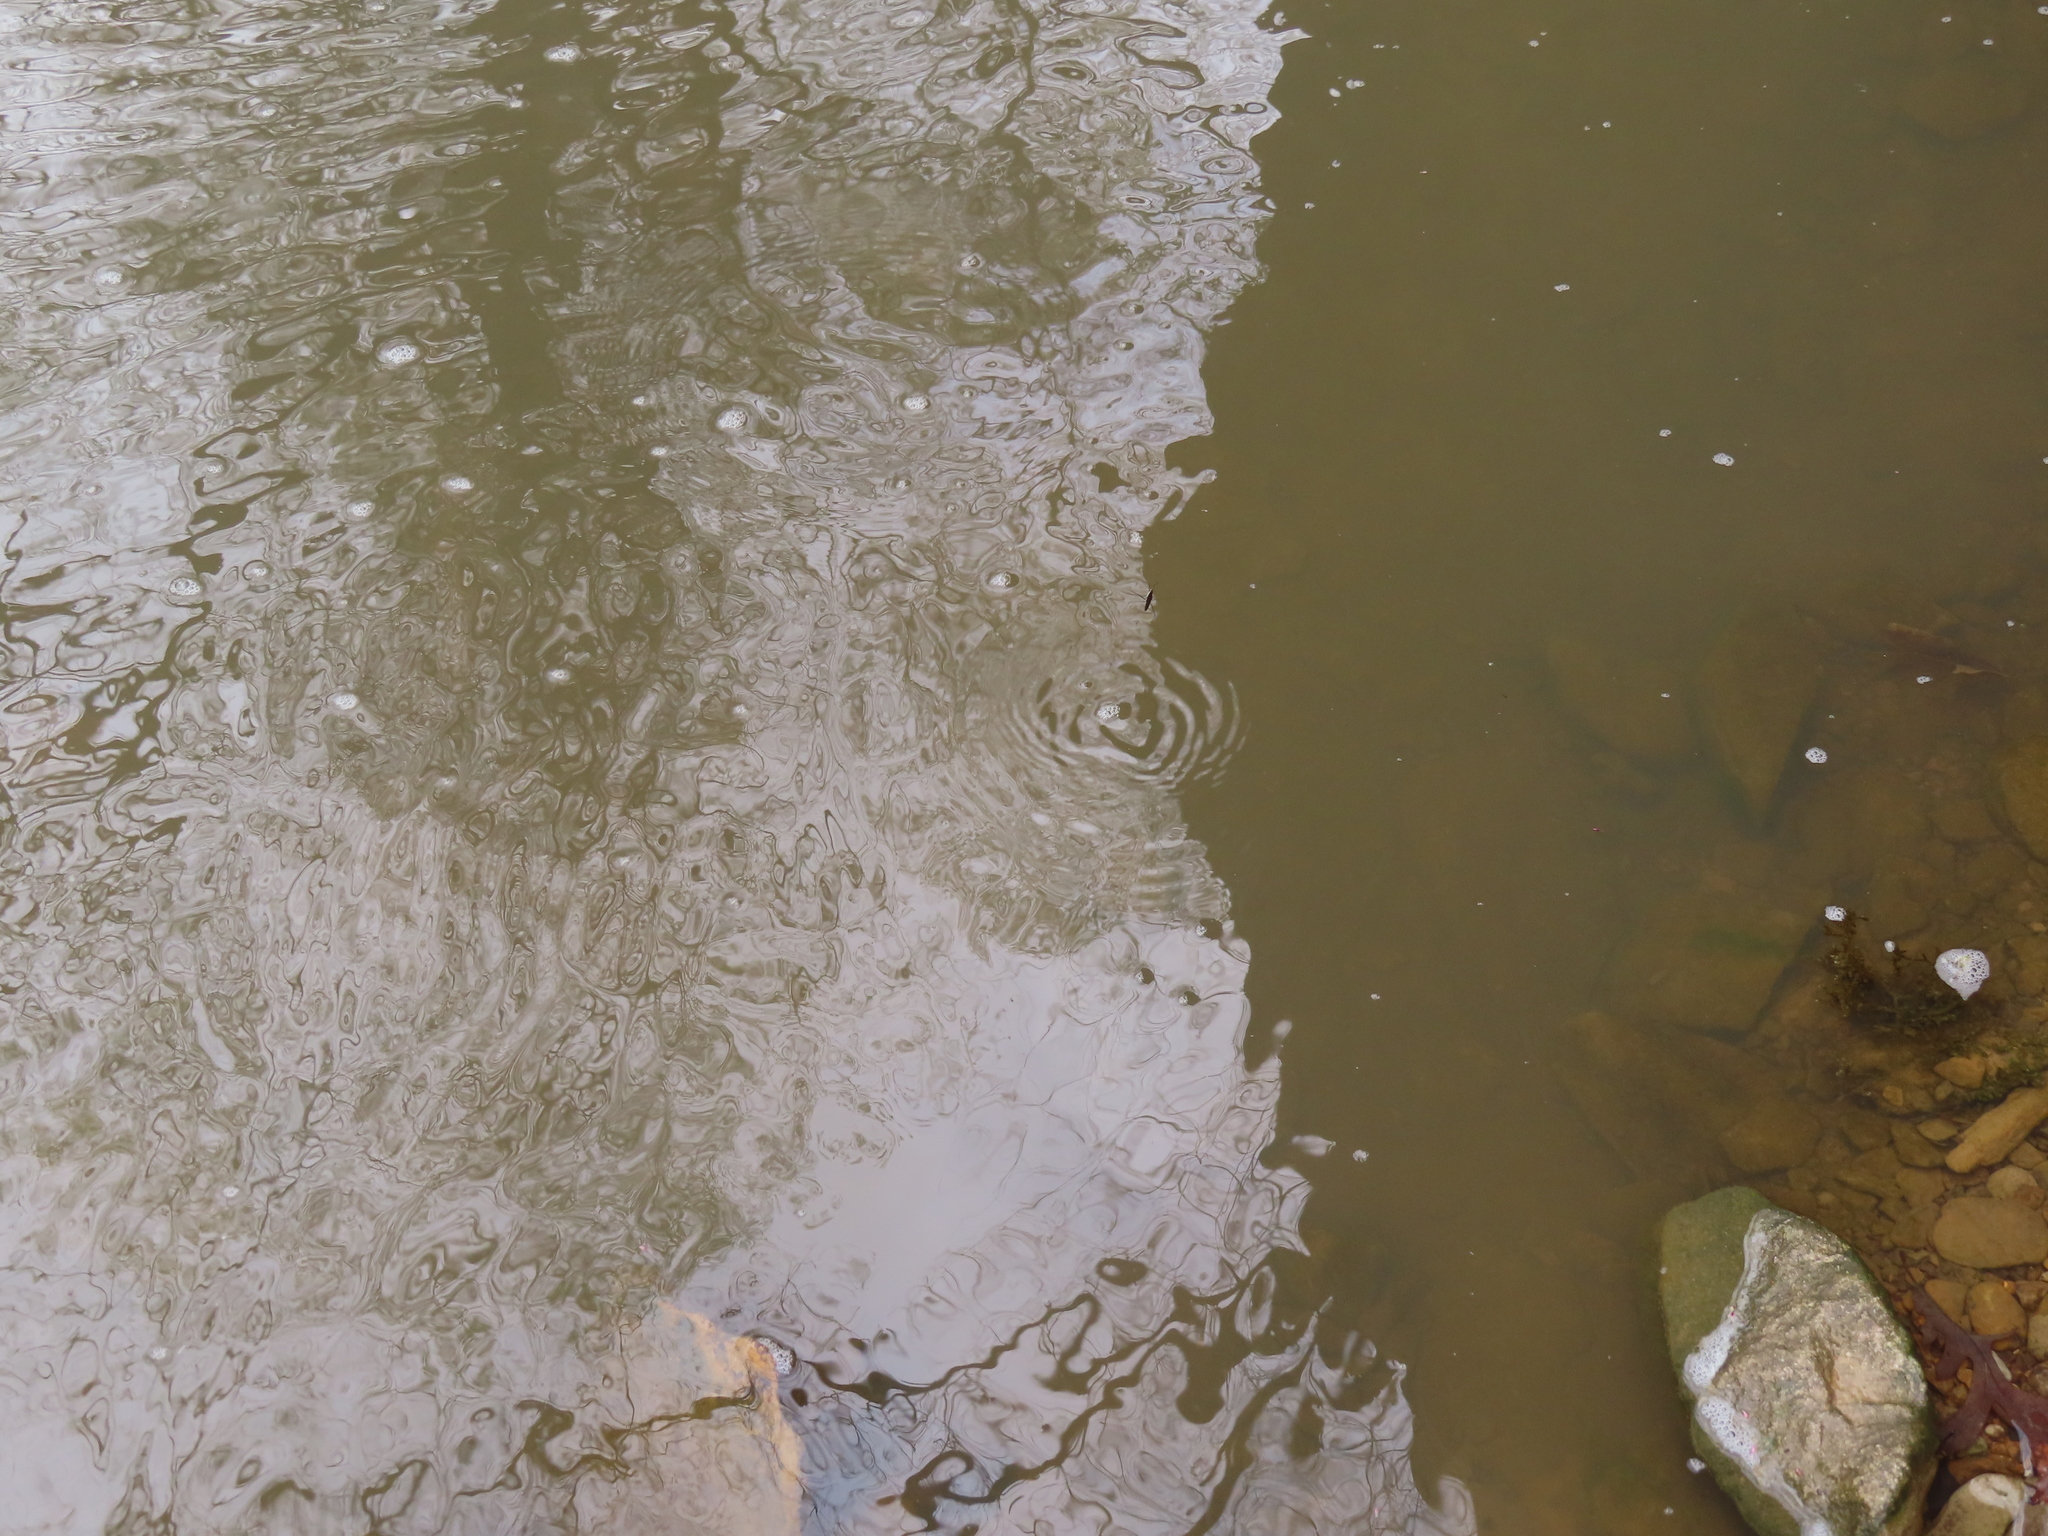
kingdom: Animalia
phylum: Arthropoda
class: Insecta
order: Hemiptera
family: Gerridae
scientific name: Gerridae
